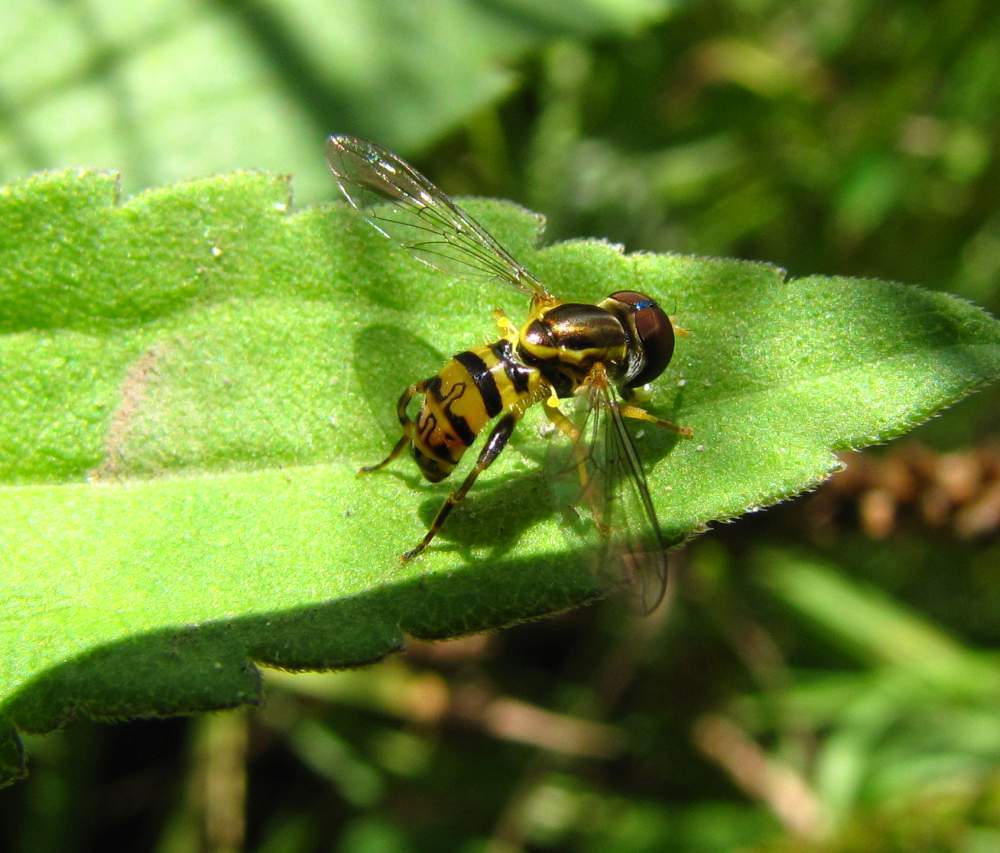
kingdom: Animalia
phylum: Arthropoda
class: Insecta
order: Diptera
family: Syrphidae
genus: Toxomerus
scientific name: Toxomerus geminatus
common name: Eastern calligrapher
